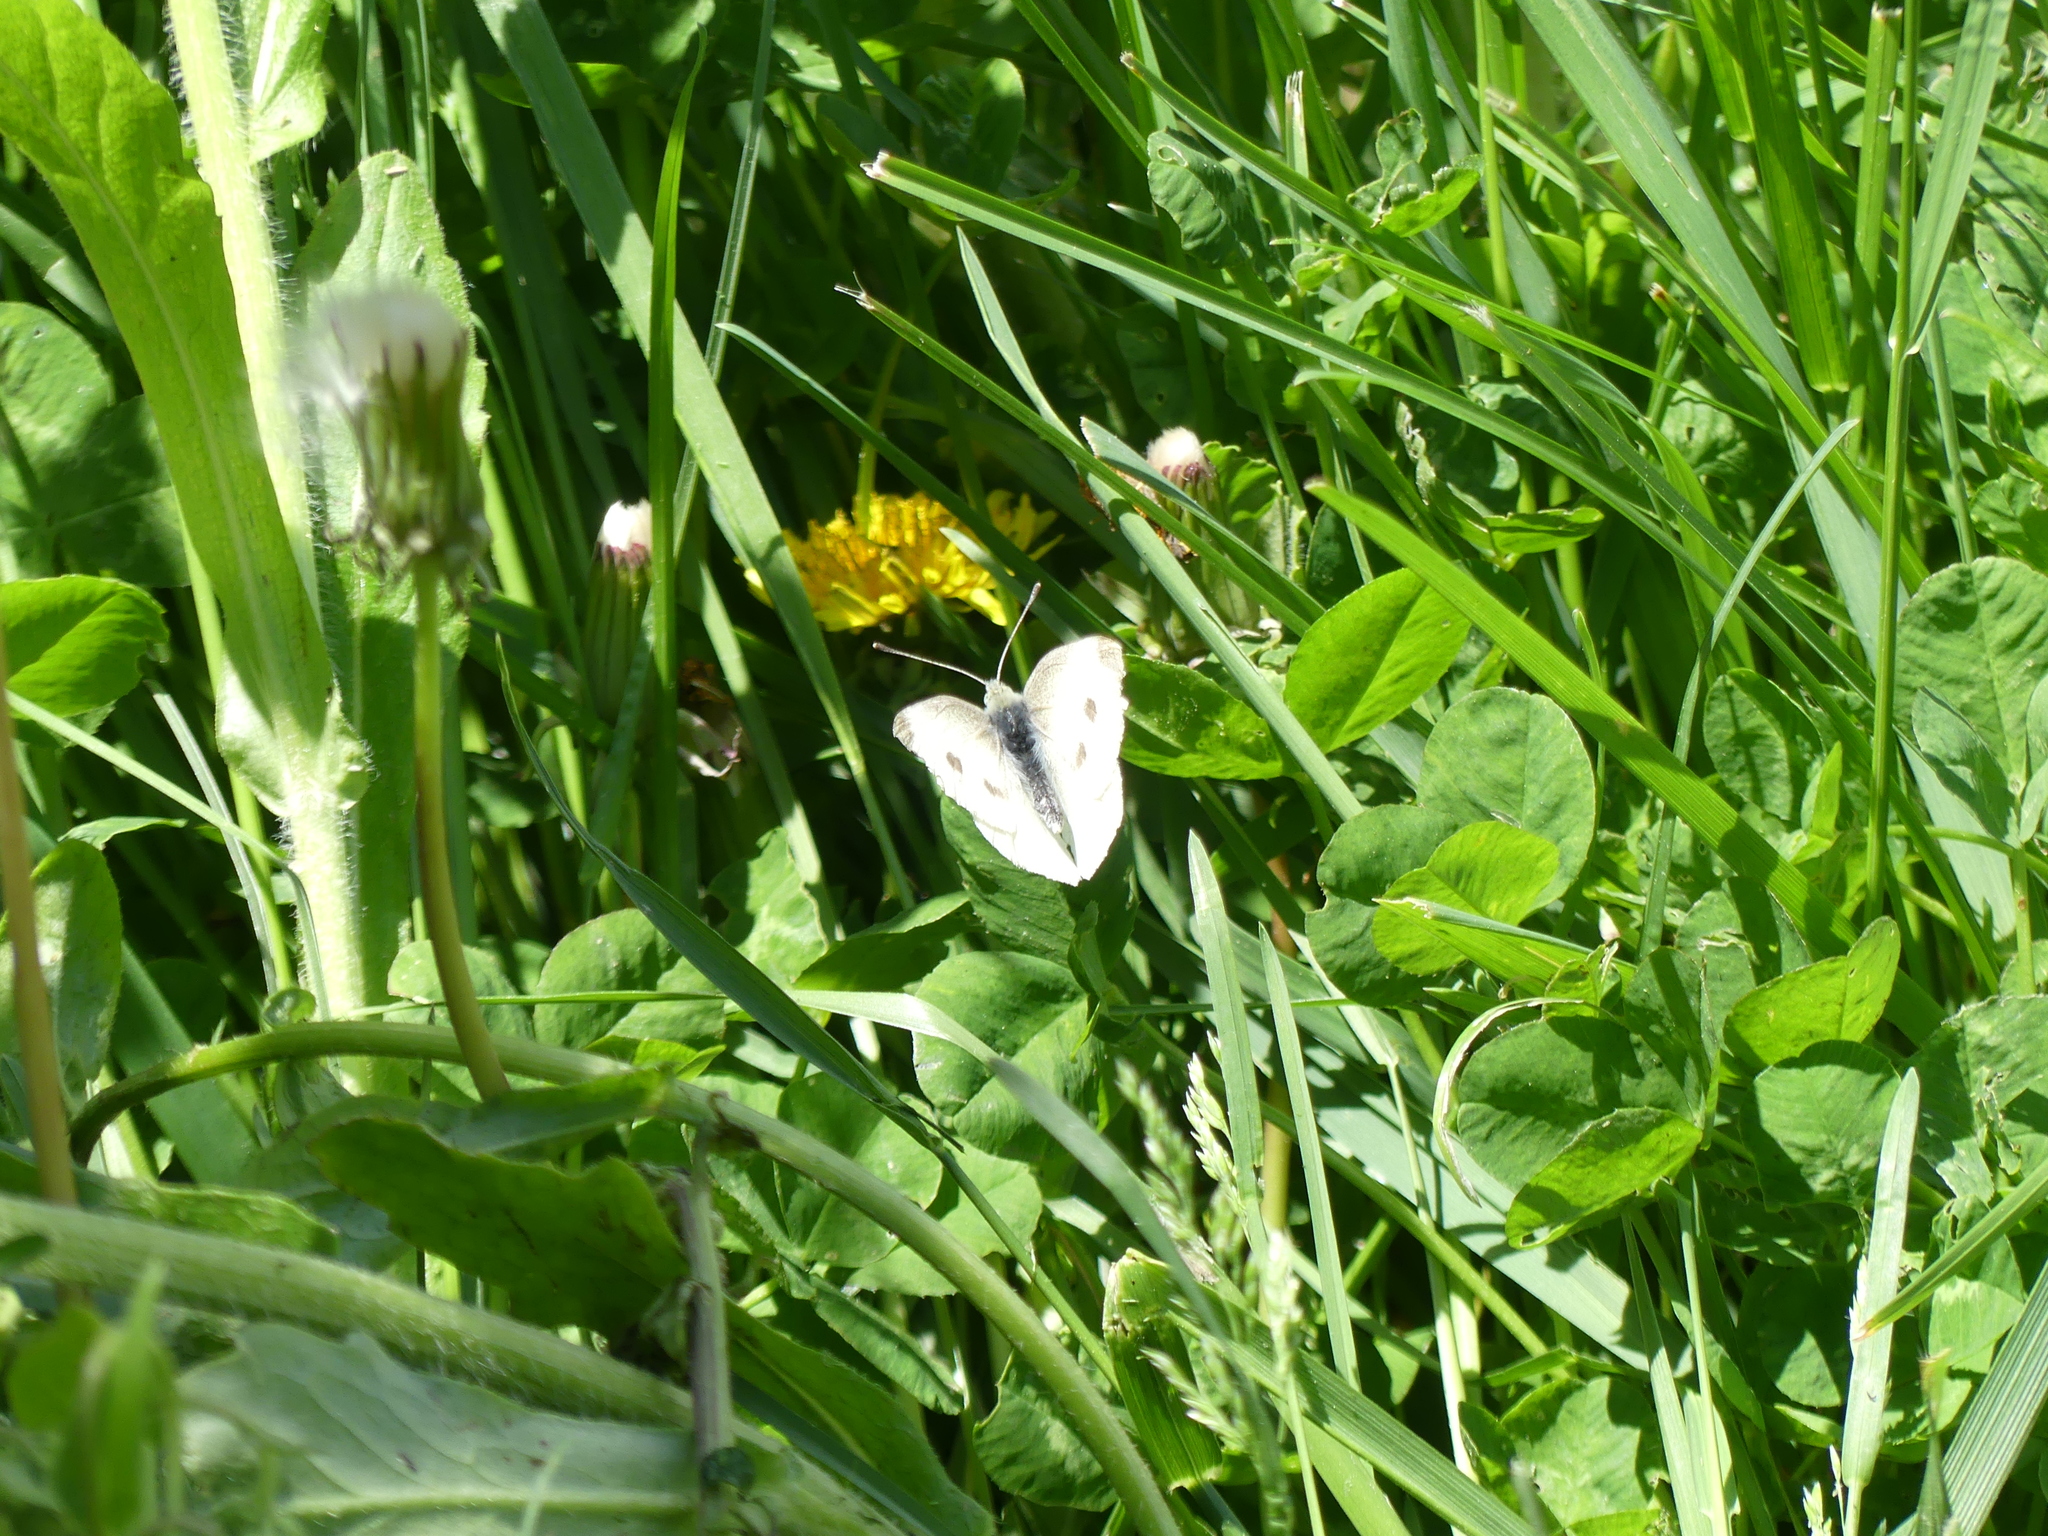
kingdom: Animalia
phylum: Arthropoda
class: Insecta
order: Lepidoptera
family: Pieridae
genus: Pieris
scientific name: Pieris rapae
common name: Small white
